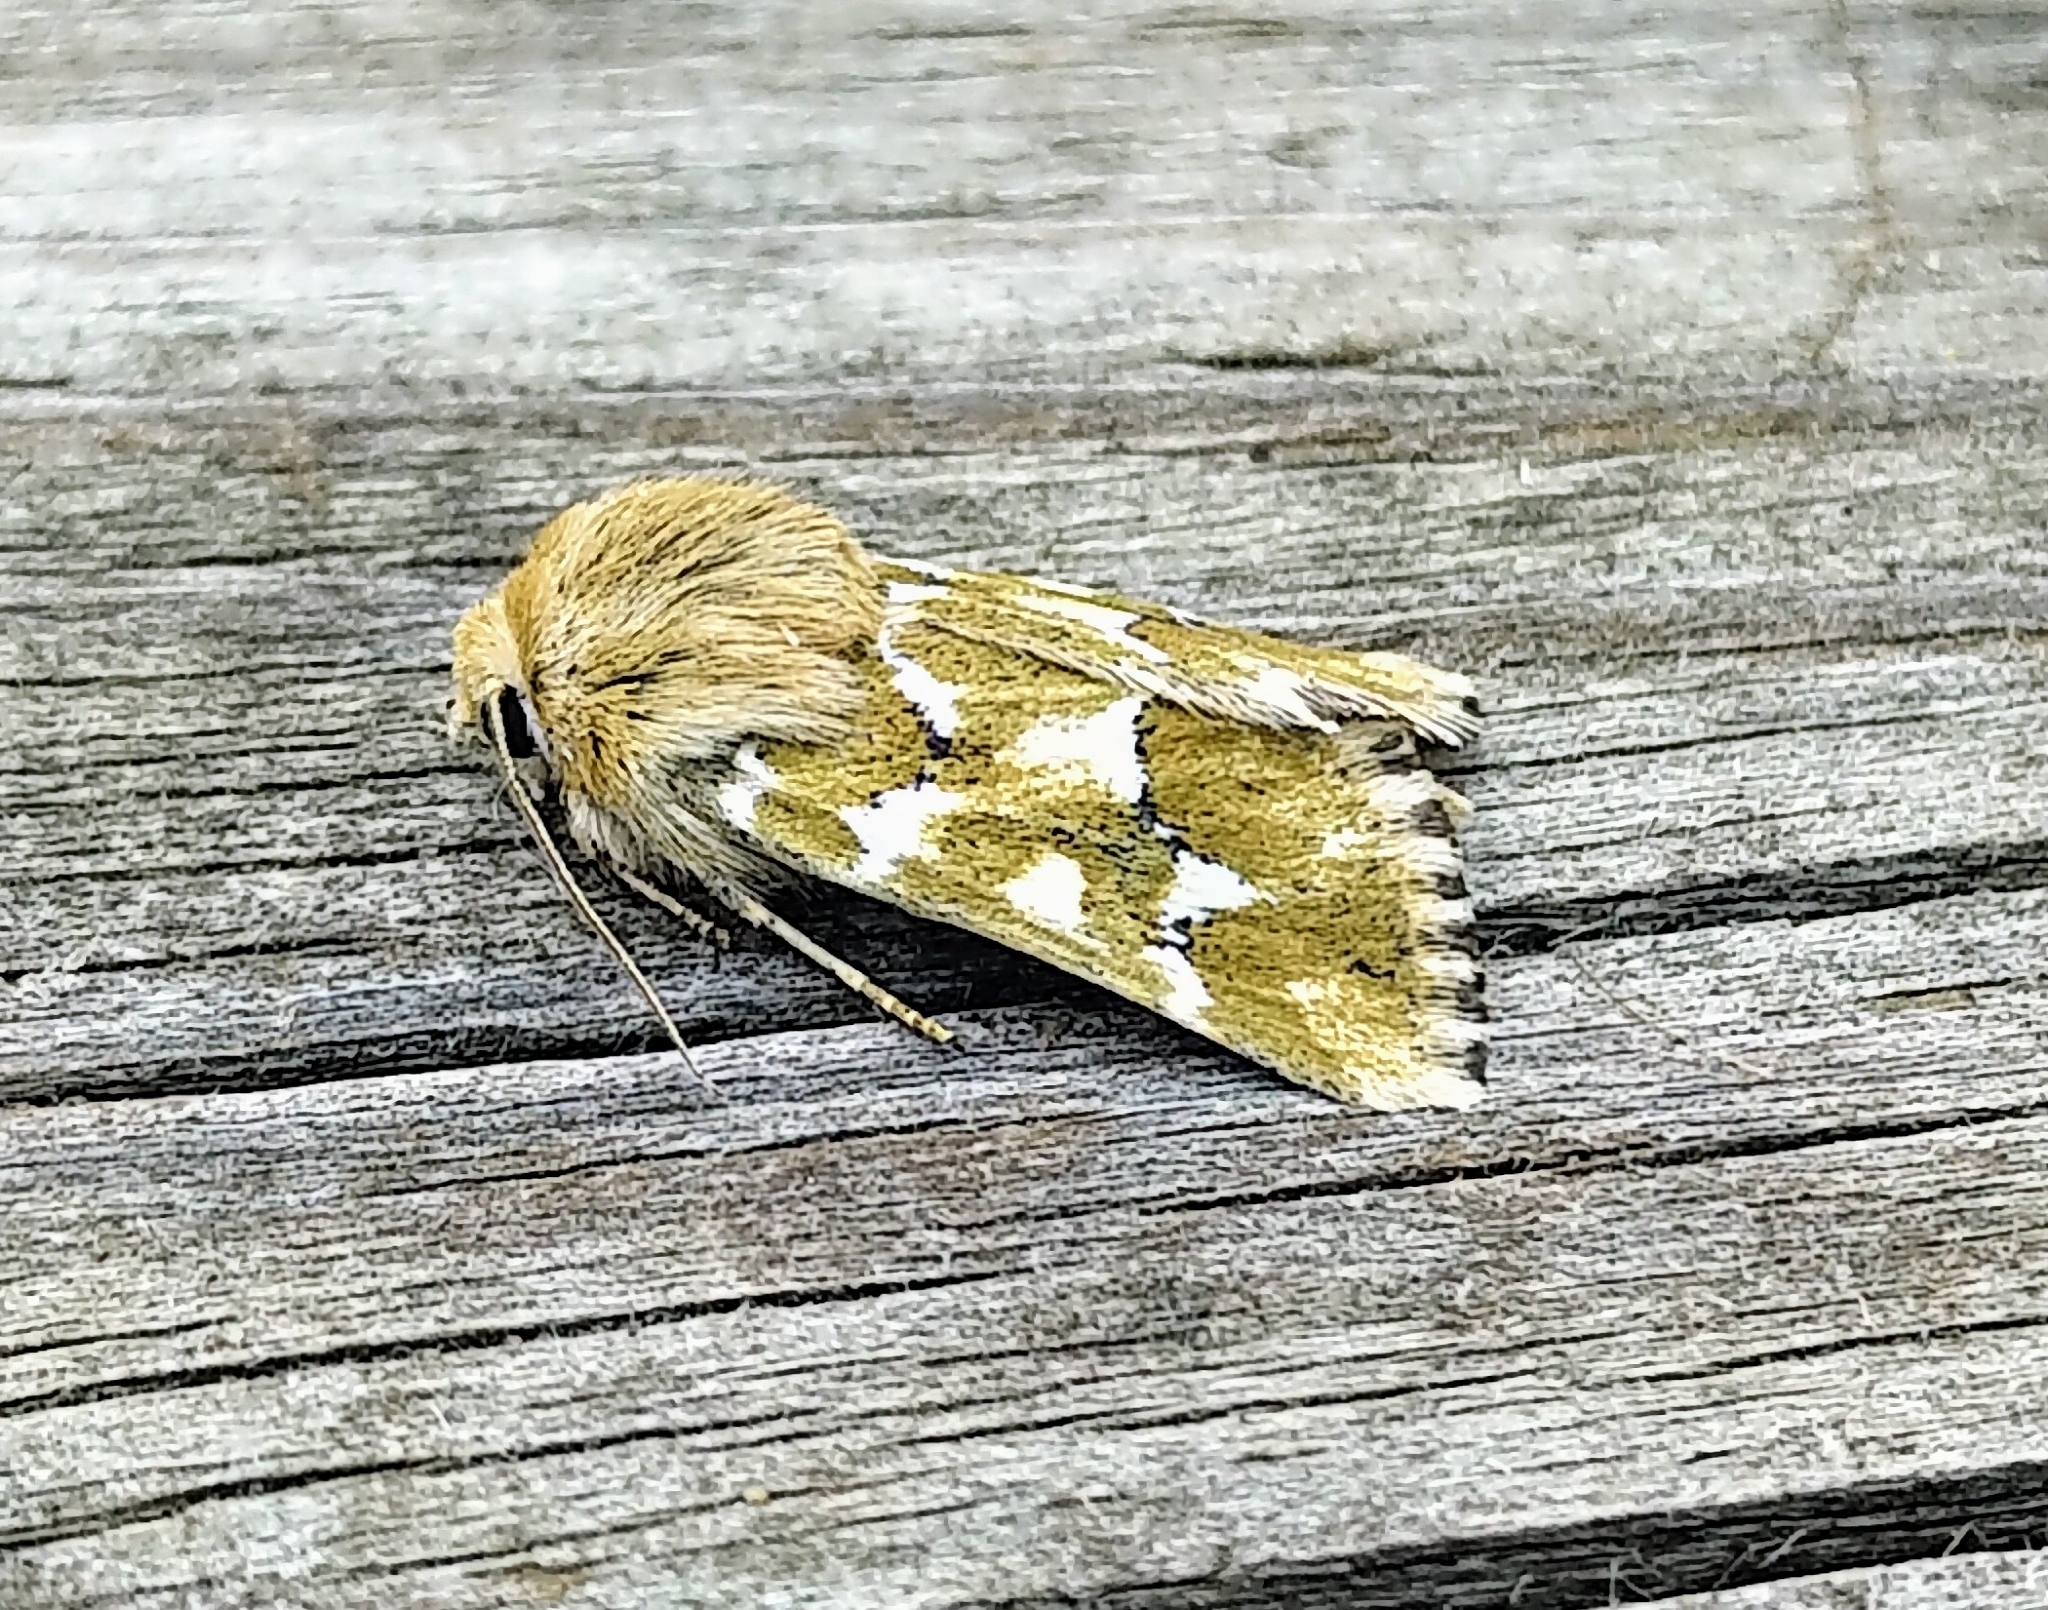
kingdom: Animalia
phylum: Arthropoda
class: Insecta
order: Lepidoptera
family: Noctuidae
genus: Schinia
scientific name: Schinia meadi
